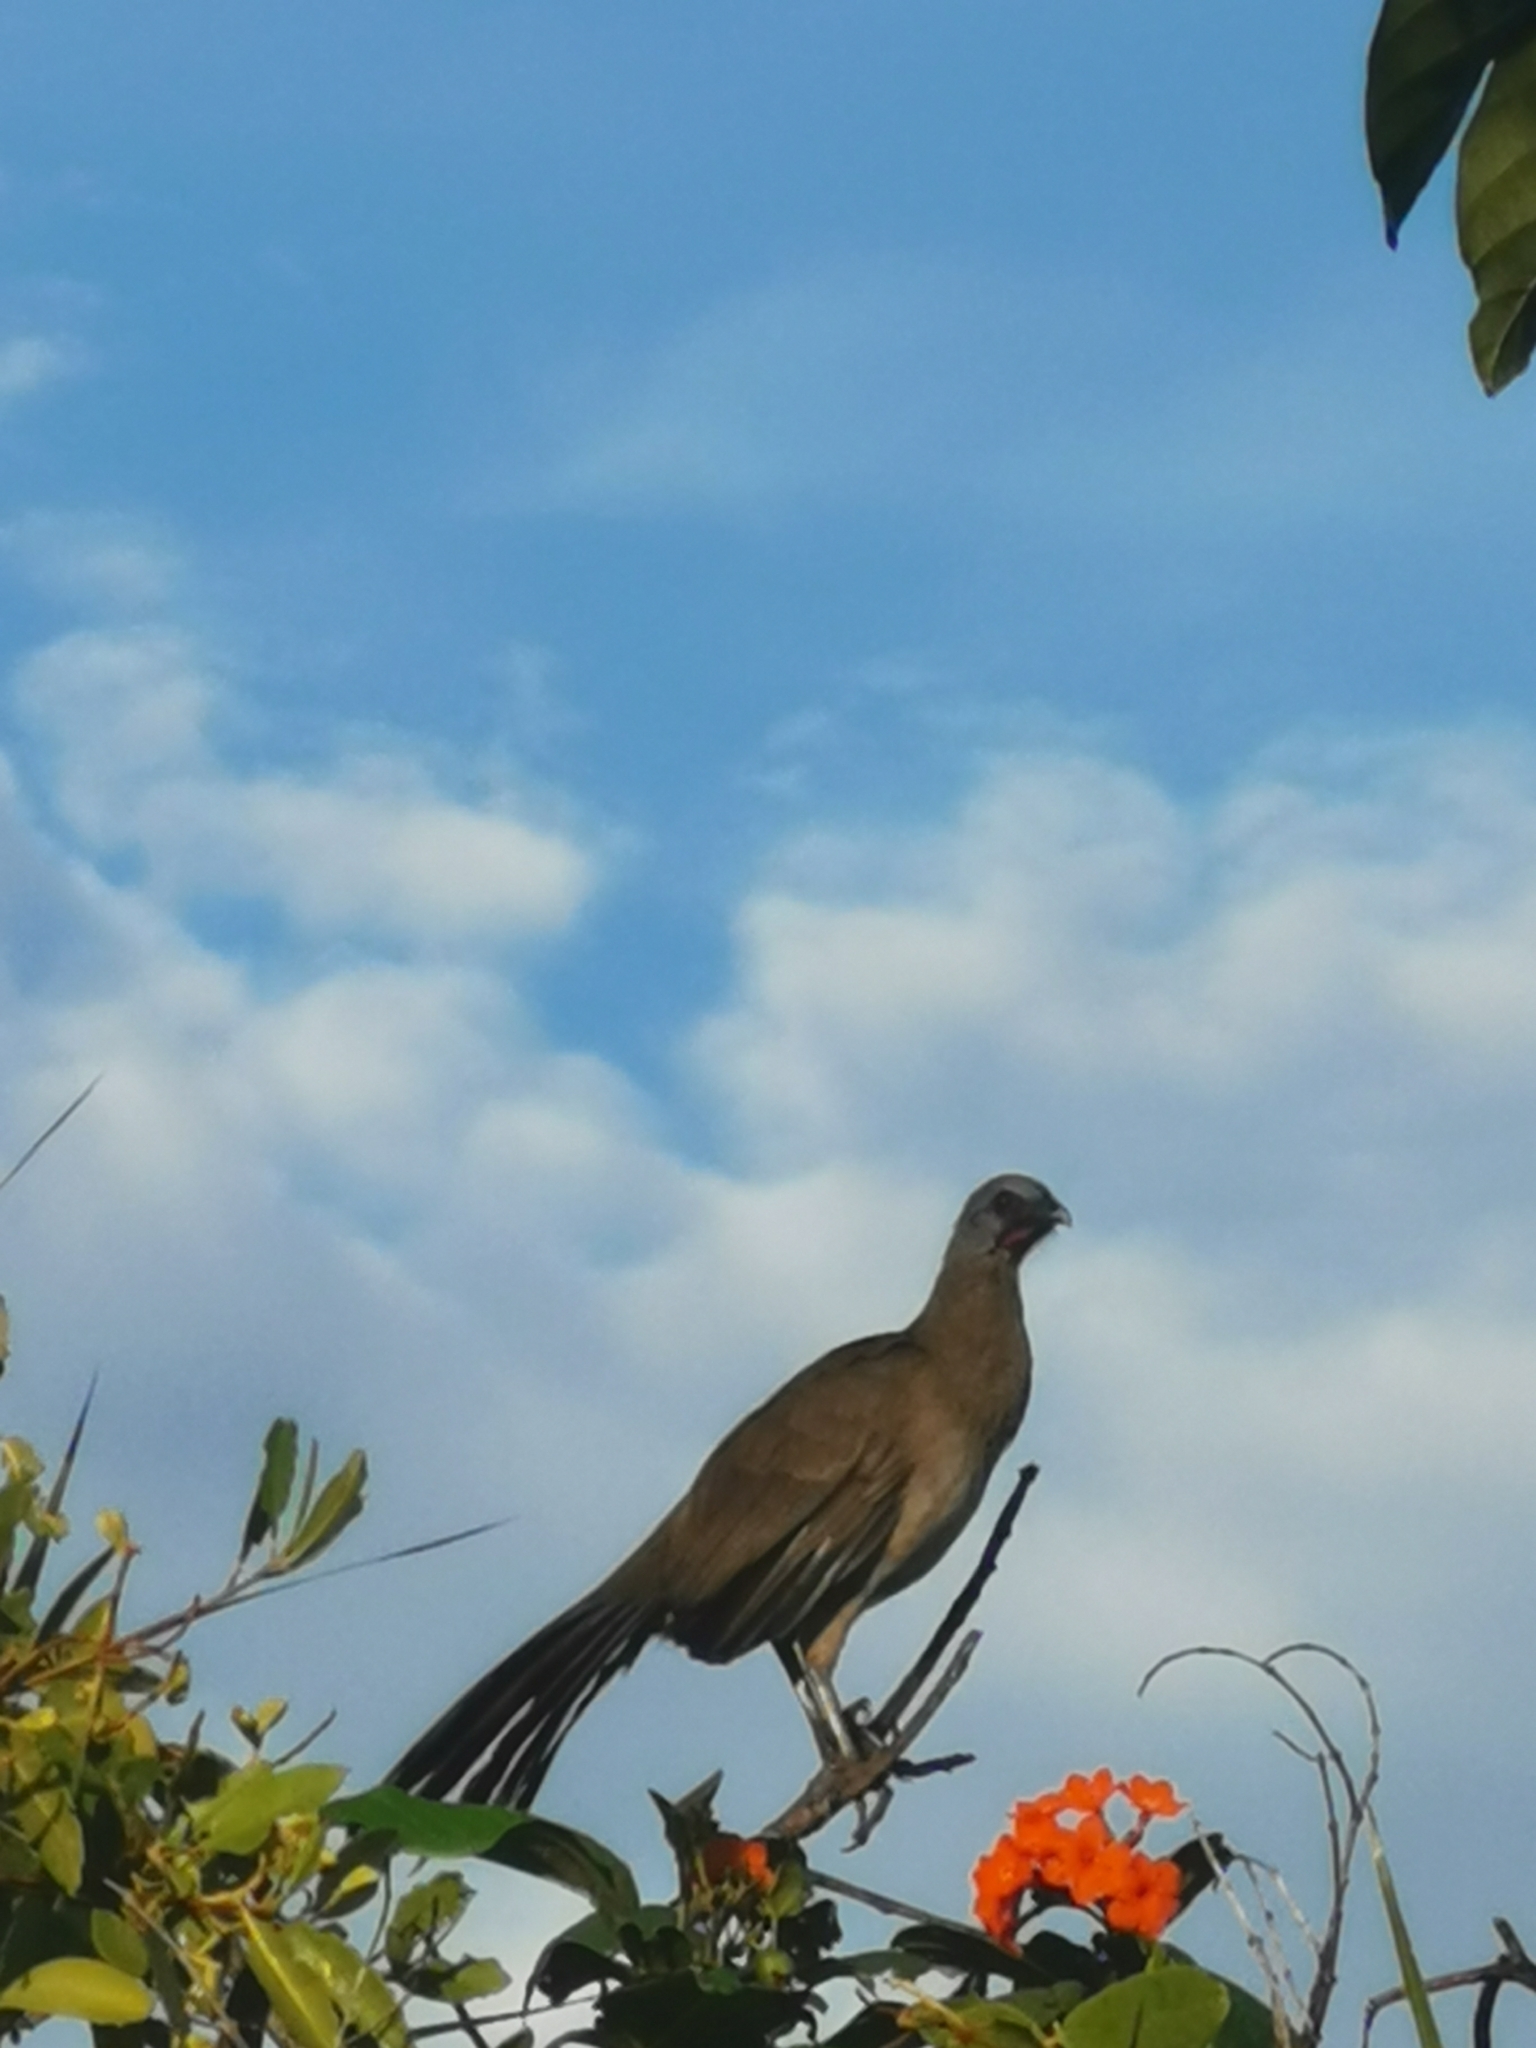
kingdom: Animalia
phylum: Chordata
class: Aves
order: Galliformes
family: Cracidae
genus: Ortalis
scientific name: Ortalis vetula
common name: Plain chachalaca
